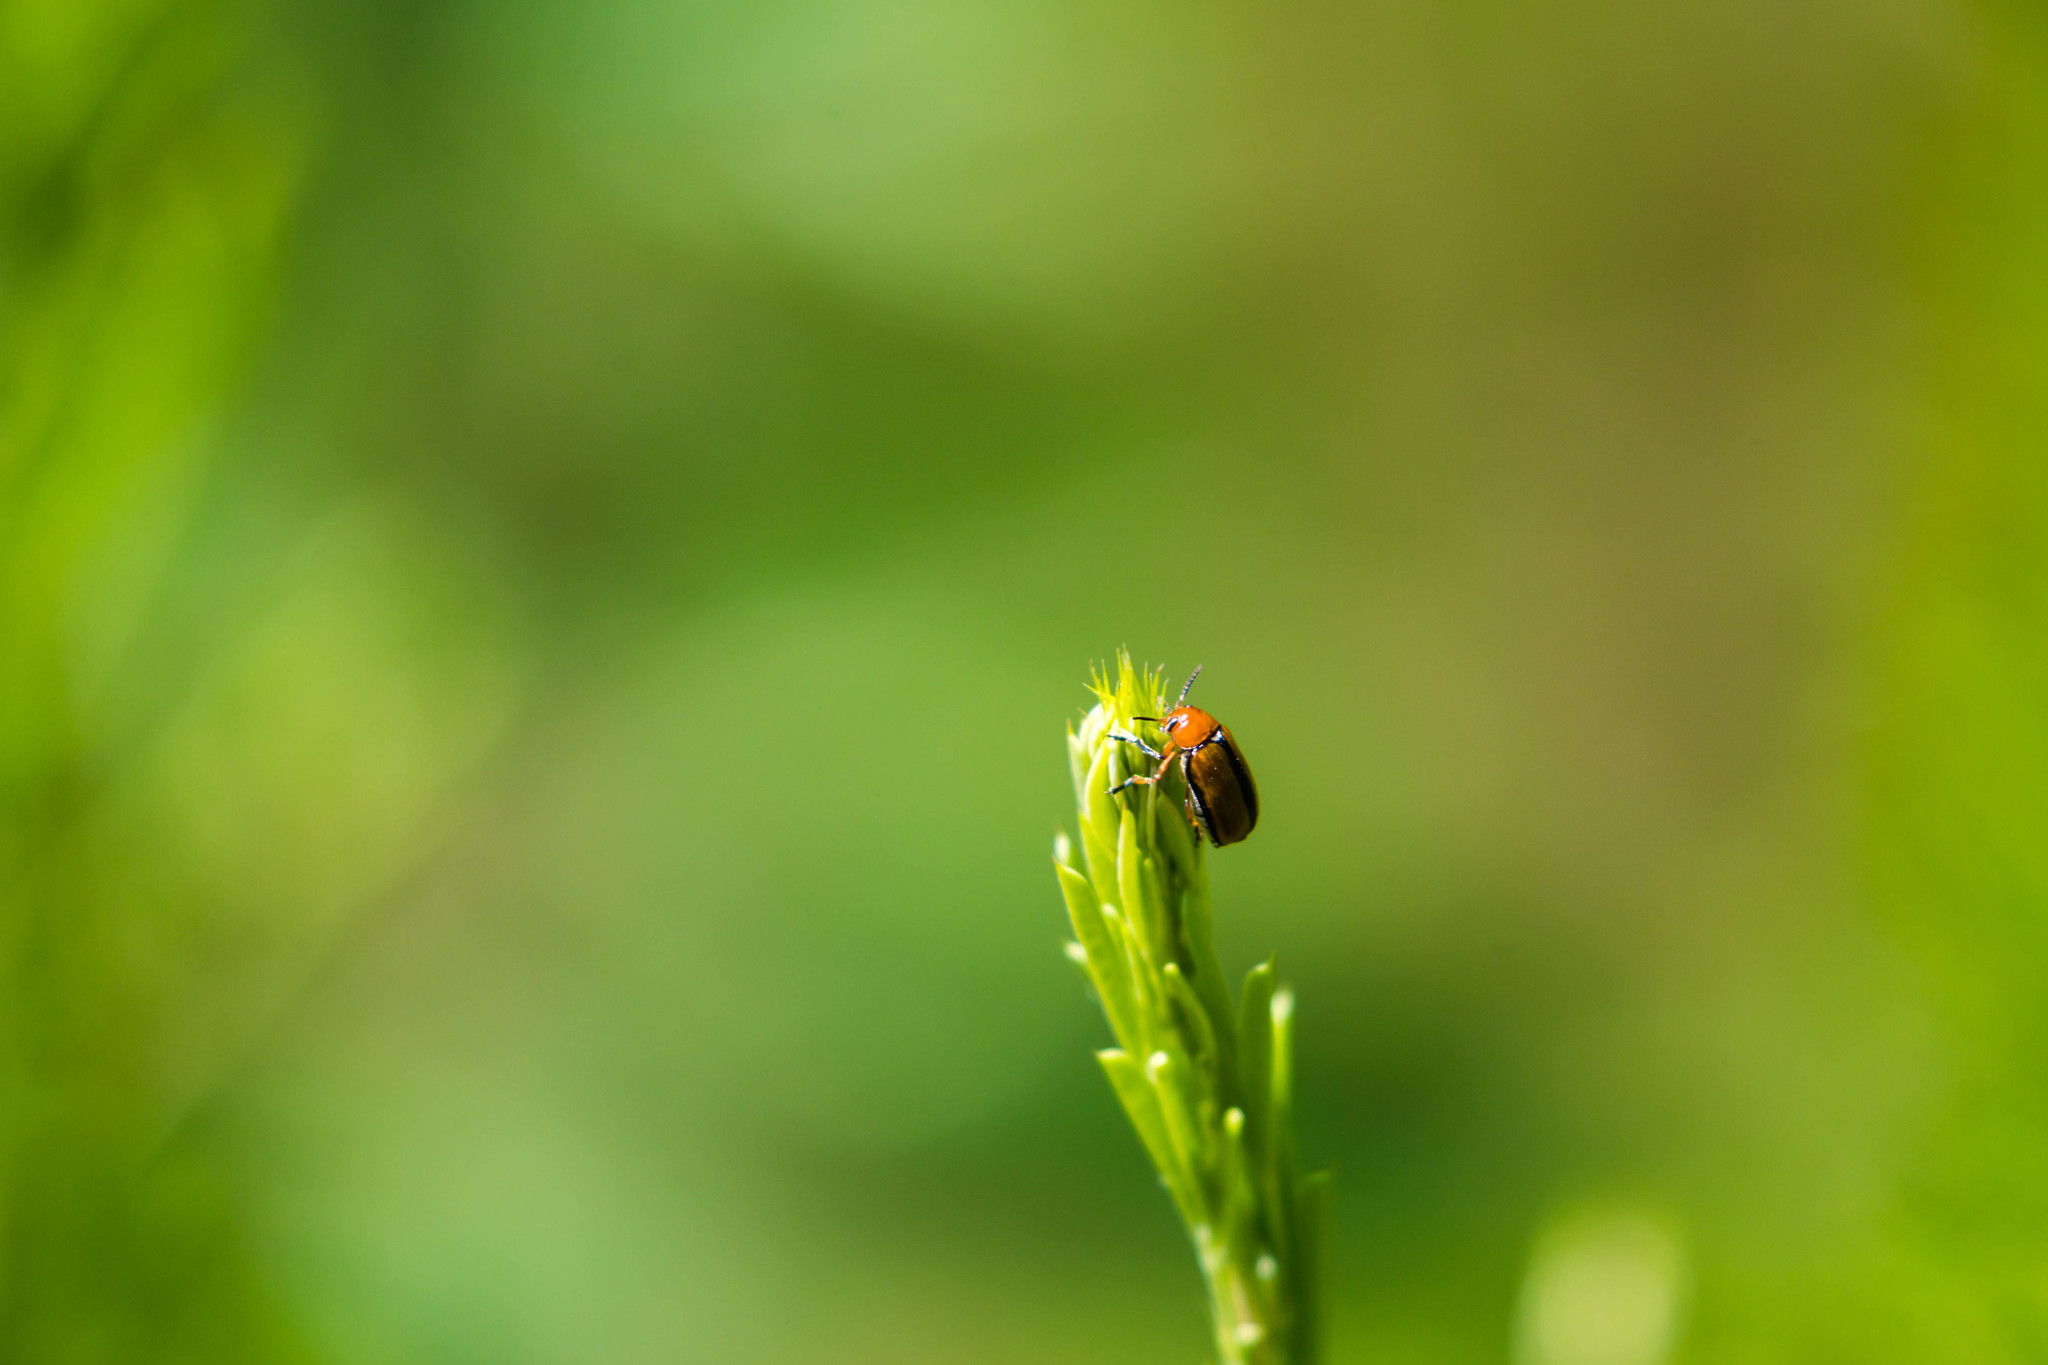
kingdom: Animalia
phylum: Arthropoda
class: Insecta
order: Coleoptera
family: Chrysomelidae
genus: Anomoea
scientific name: Anomoea laticlavia
